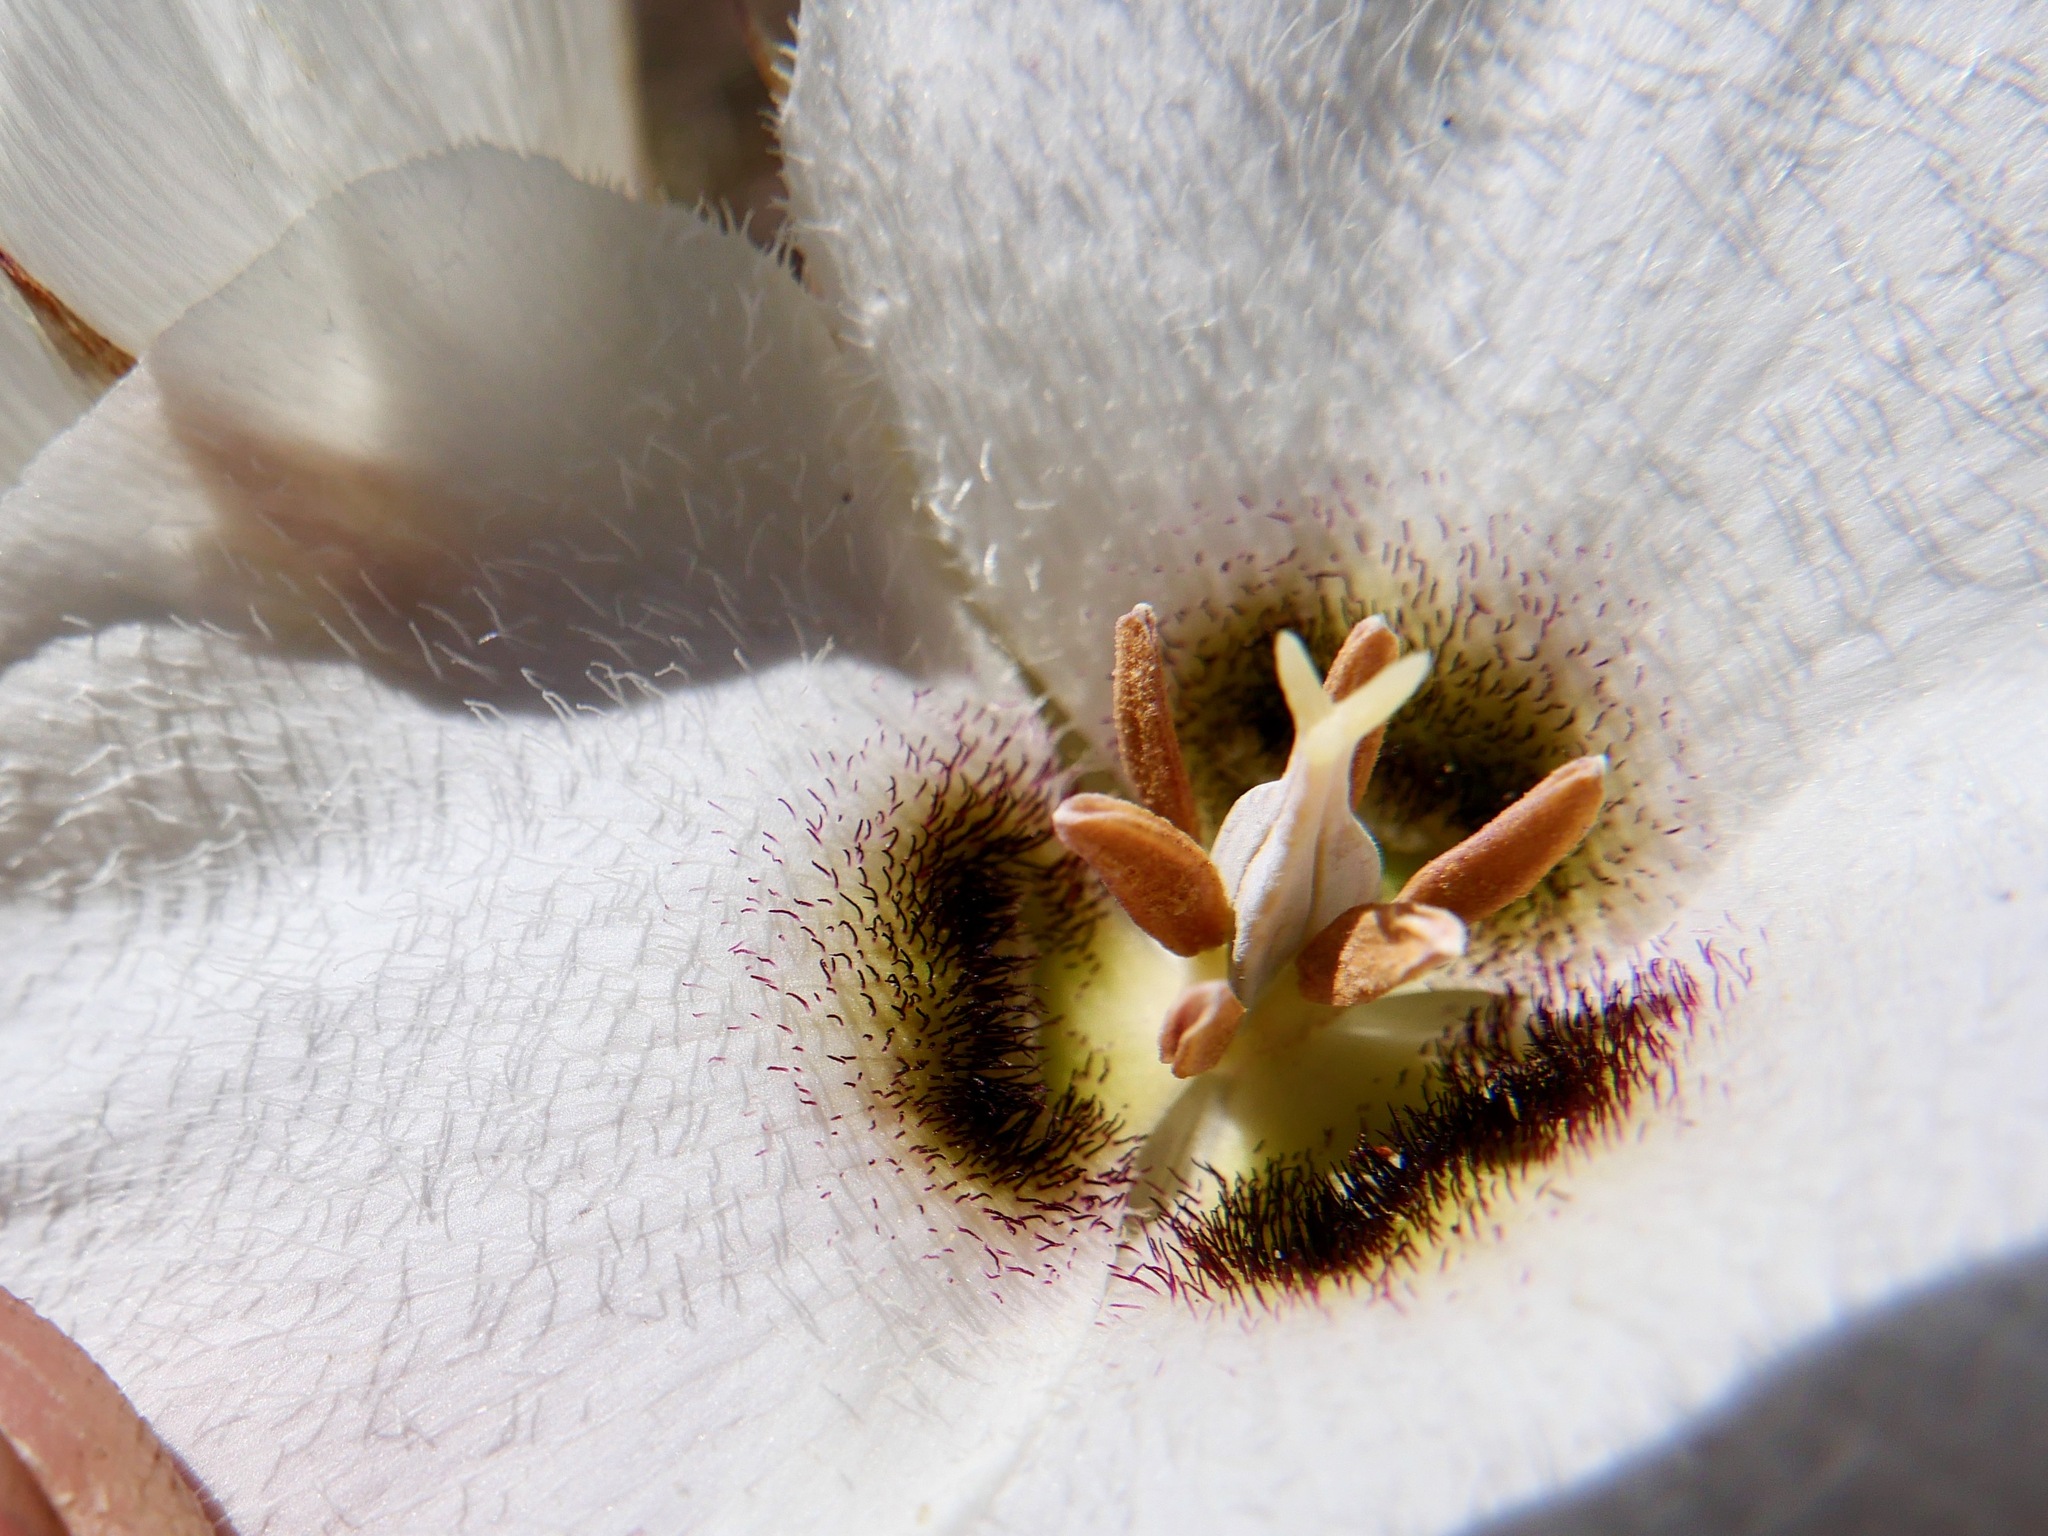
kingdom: Plantae
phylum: Tracheophyta
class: Liliopsida
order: Liliales
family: Liliaceae
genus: Calochortus
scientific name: Calochortus howellii
